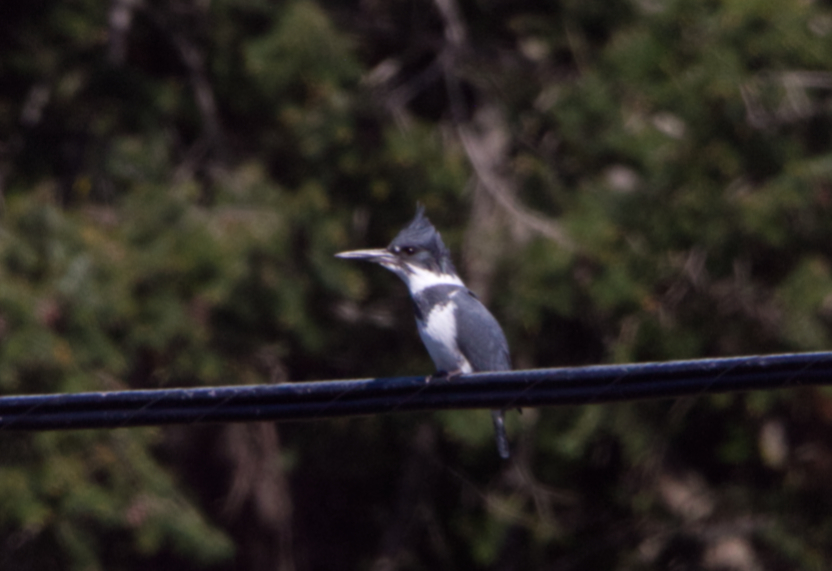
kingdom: Animalia
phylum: Chordata
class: Aves
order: Coraciiformes
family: Alcedinidae
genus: Megaceryle
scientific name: Megaceryle alcyon
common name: Belted kingfisher
